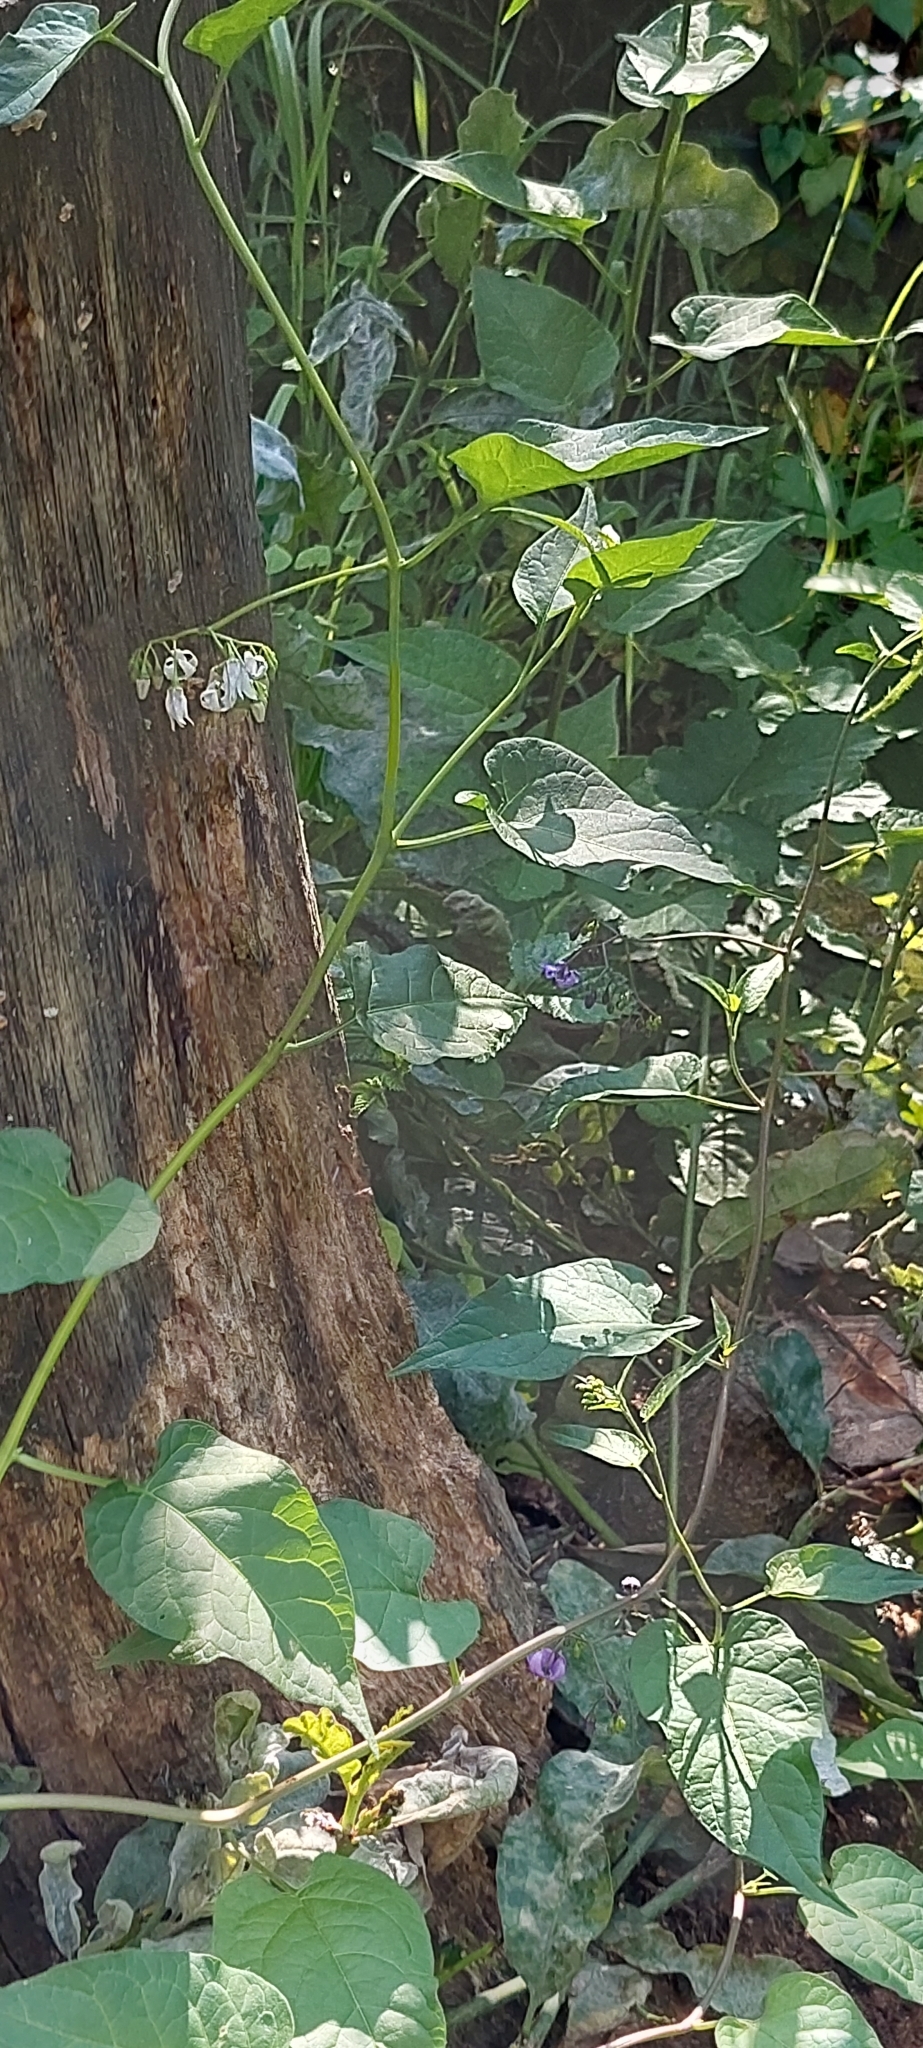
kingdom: Plantae
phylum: Tracheophyta
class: Magnoliopsida
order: Solanales
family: Solanaceae
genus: Solanum
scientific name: Solanum dulcamara
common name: Climbing nightshade
